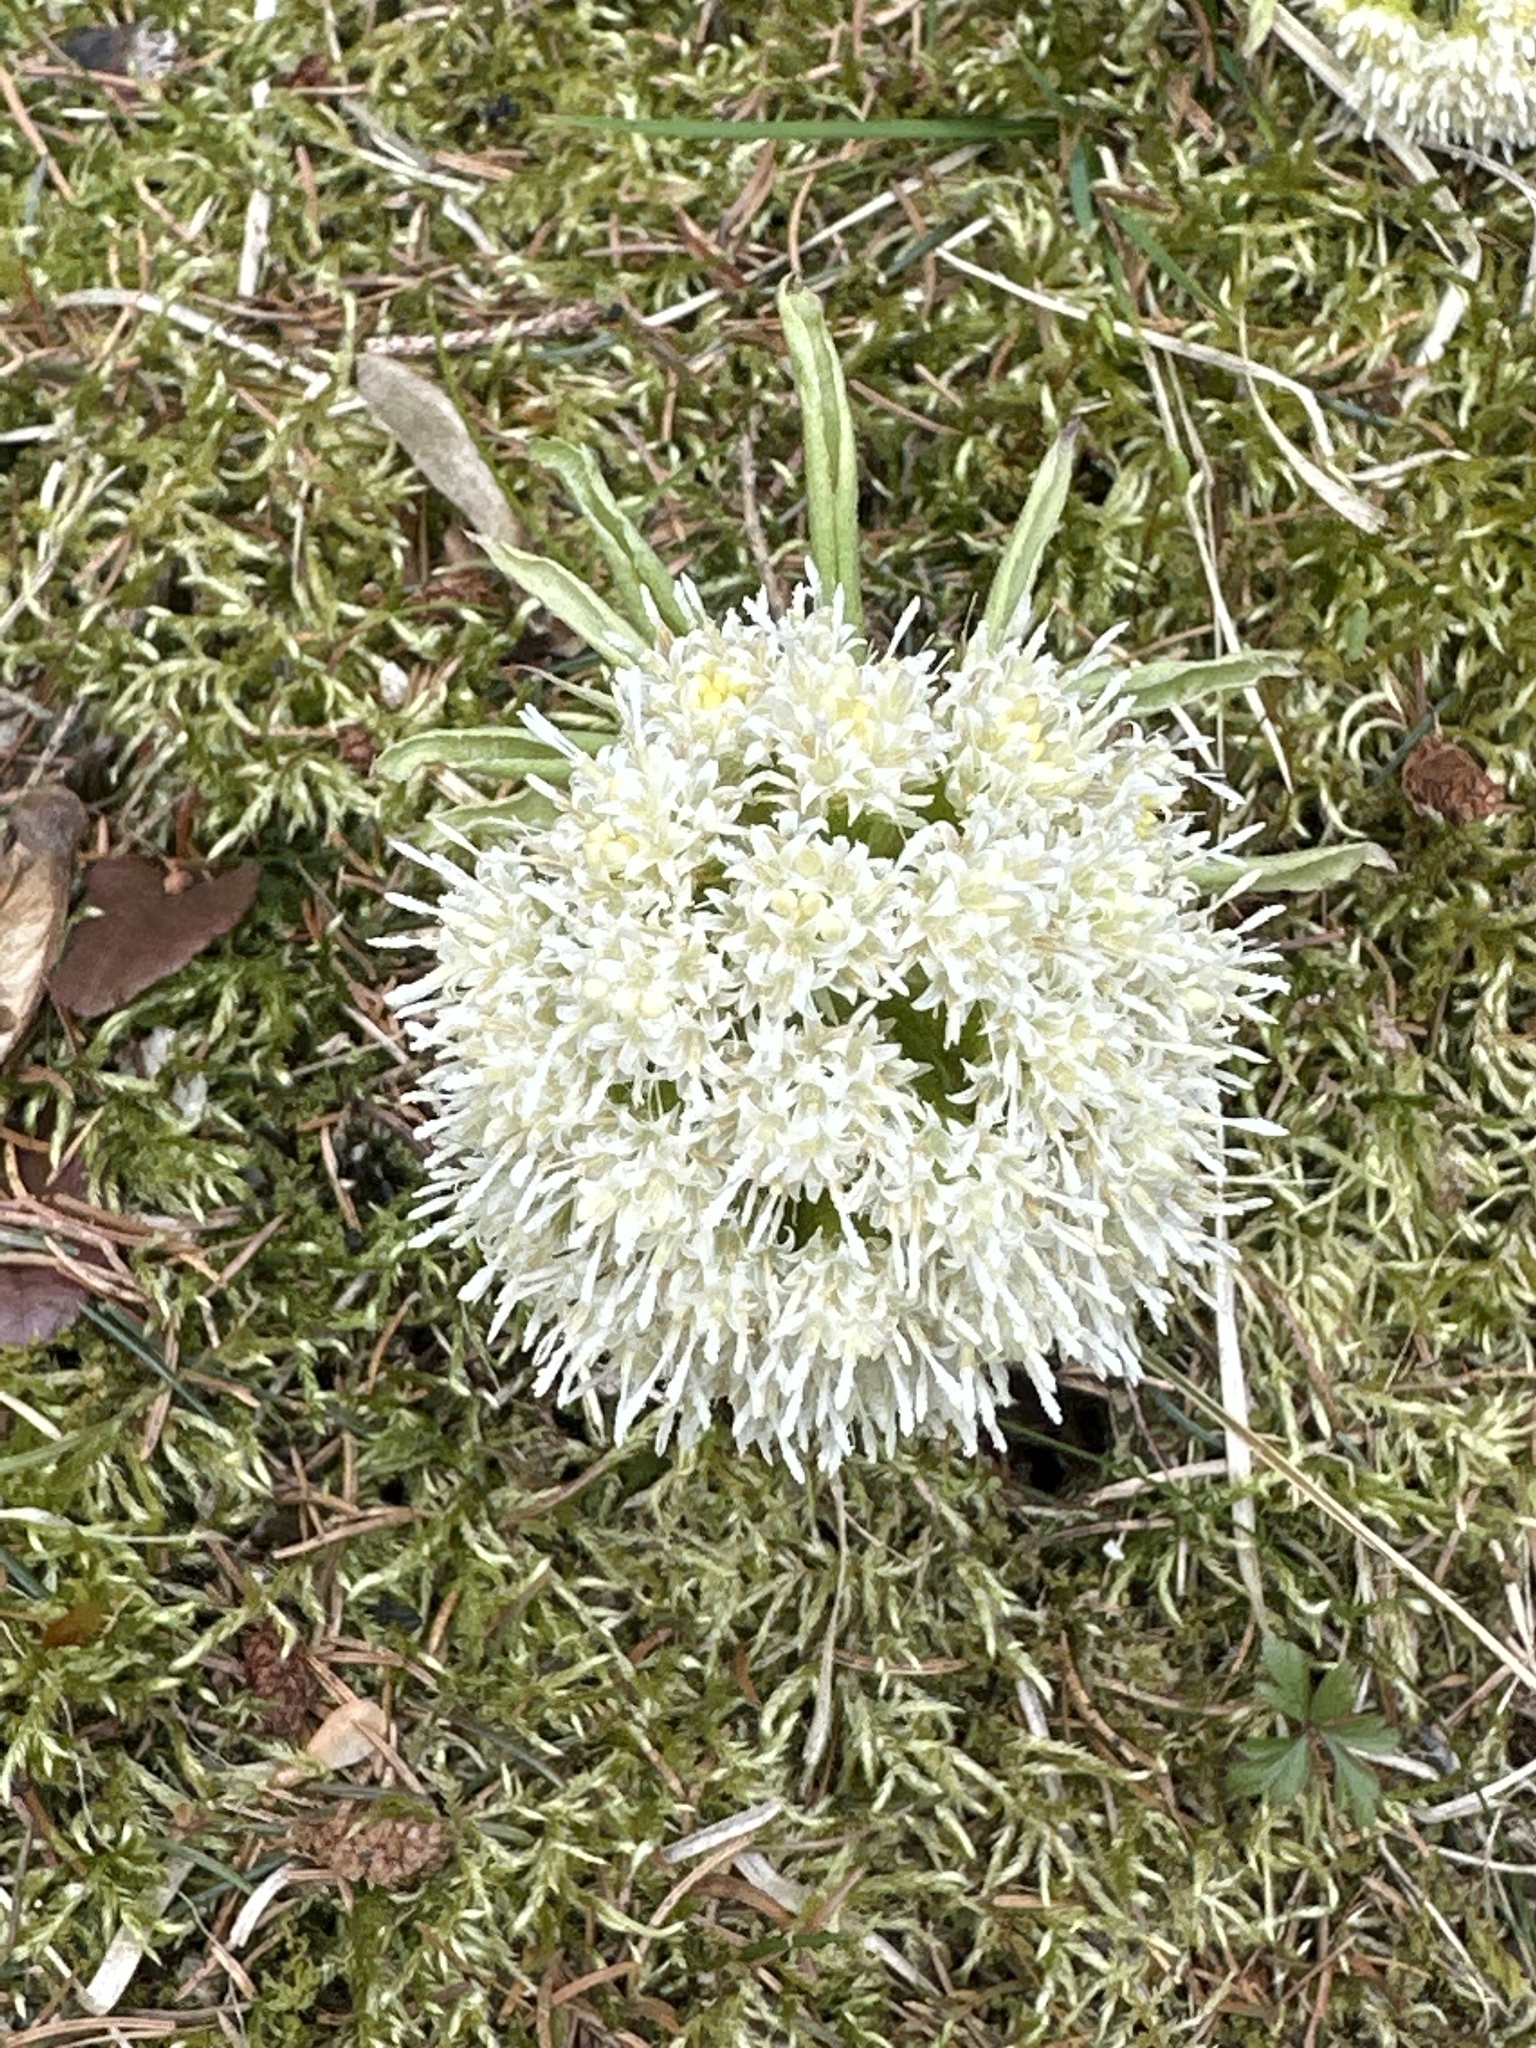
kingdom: Plantae
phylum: Tracheophyta
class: Magnoliopsida
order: Asterales
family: Asteraceae
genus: Petasites
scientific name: Petasites albus
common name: White butterbur
